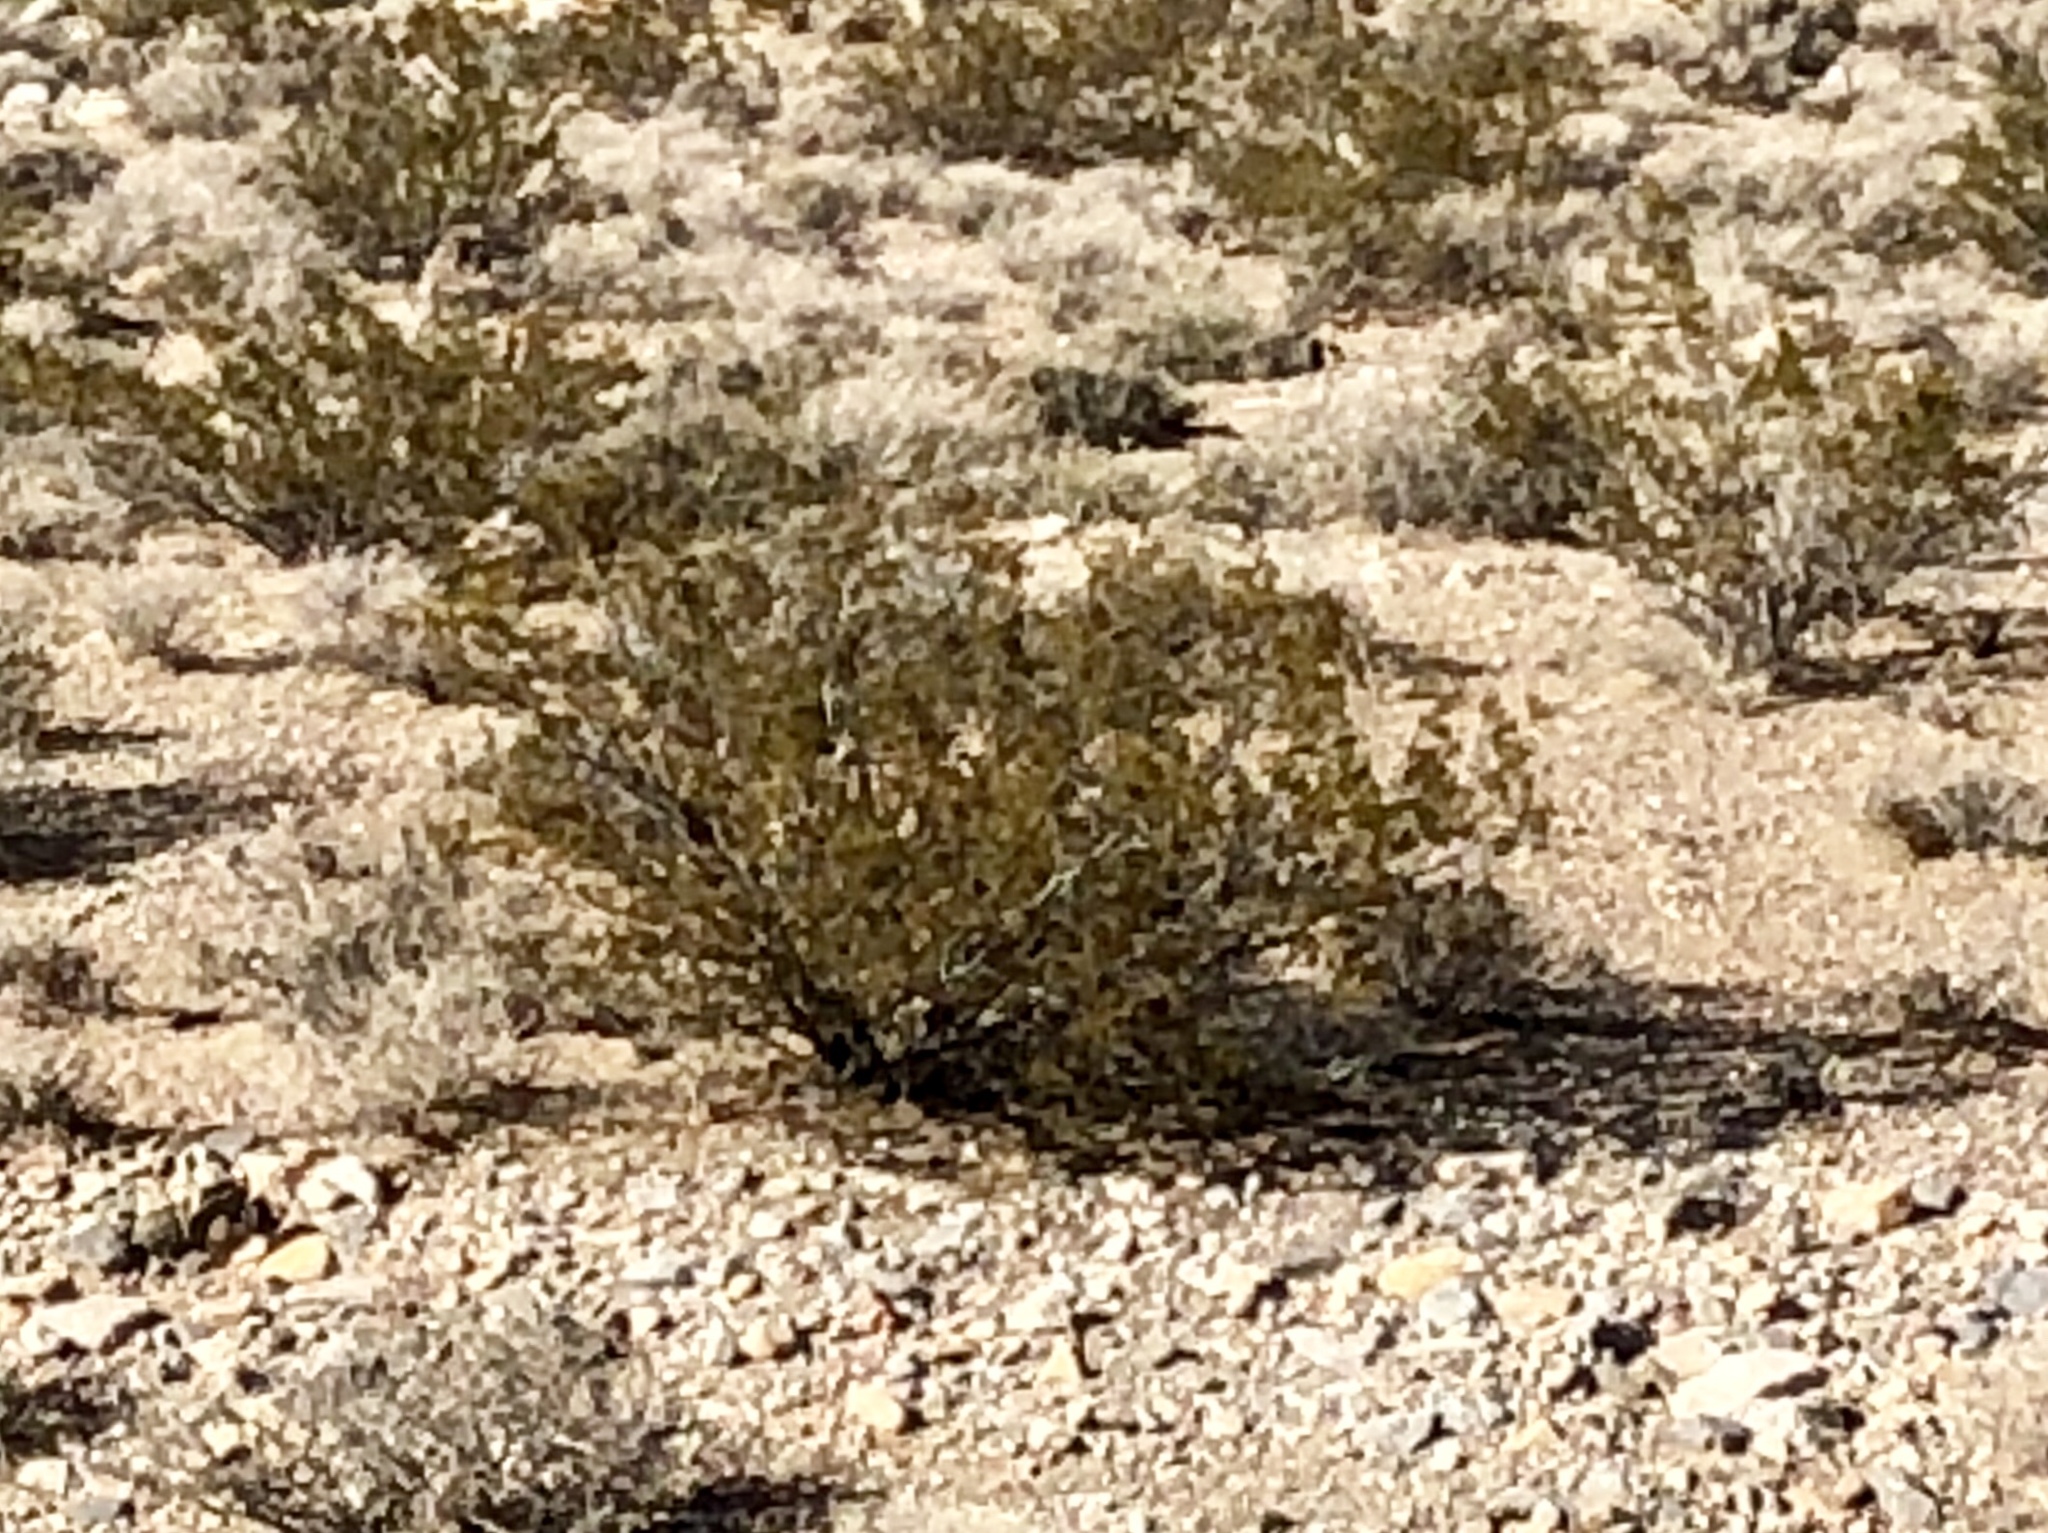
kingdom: Plantae
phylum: Tracheophyta
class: Magnoliopsida
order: Zygophyllales
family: Zygophyllaceae
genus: Larrea
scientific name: Larrea tridentata
